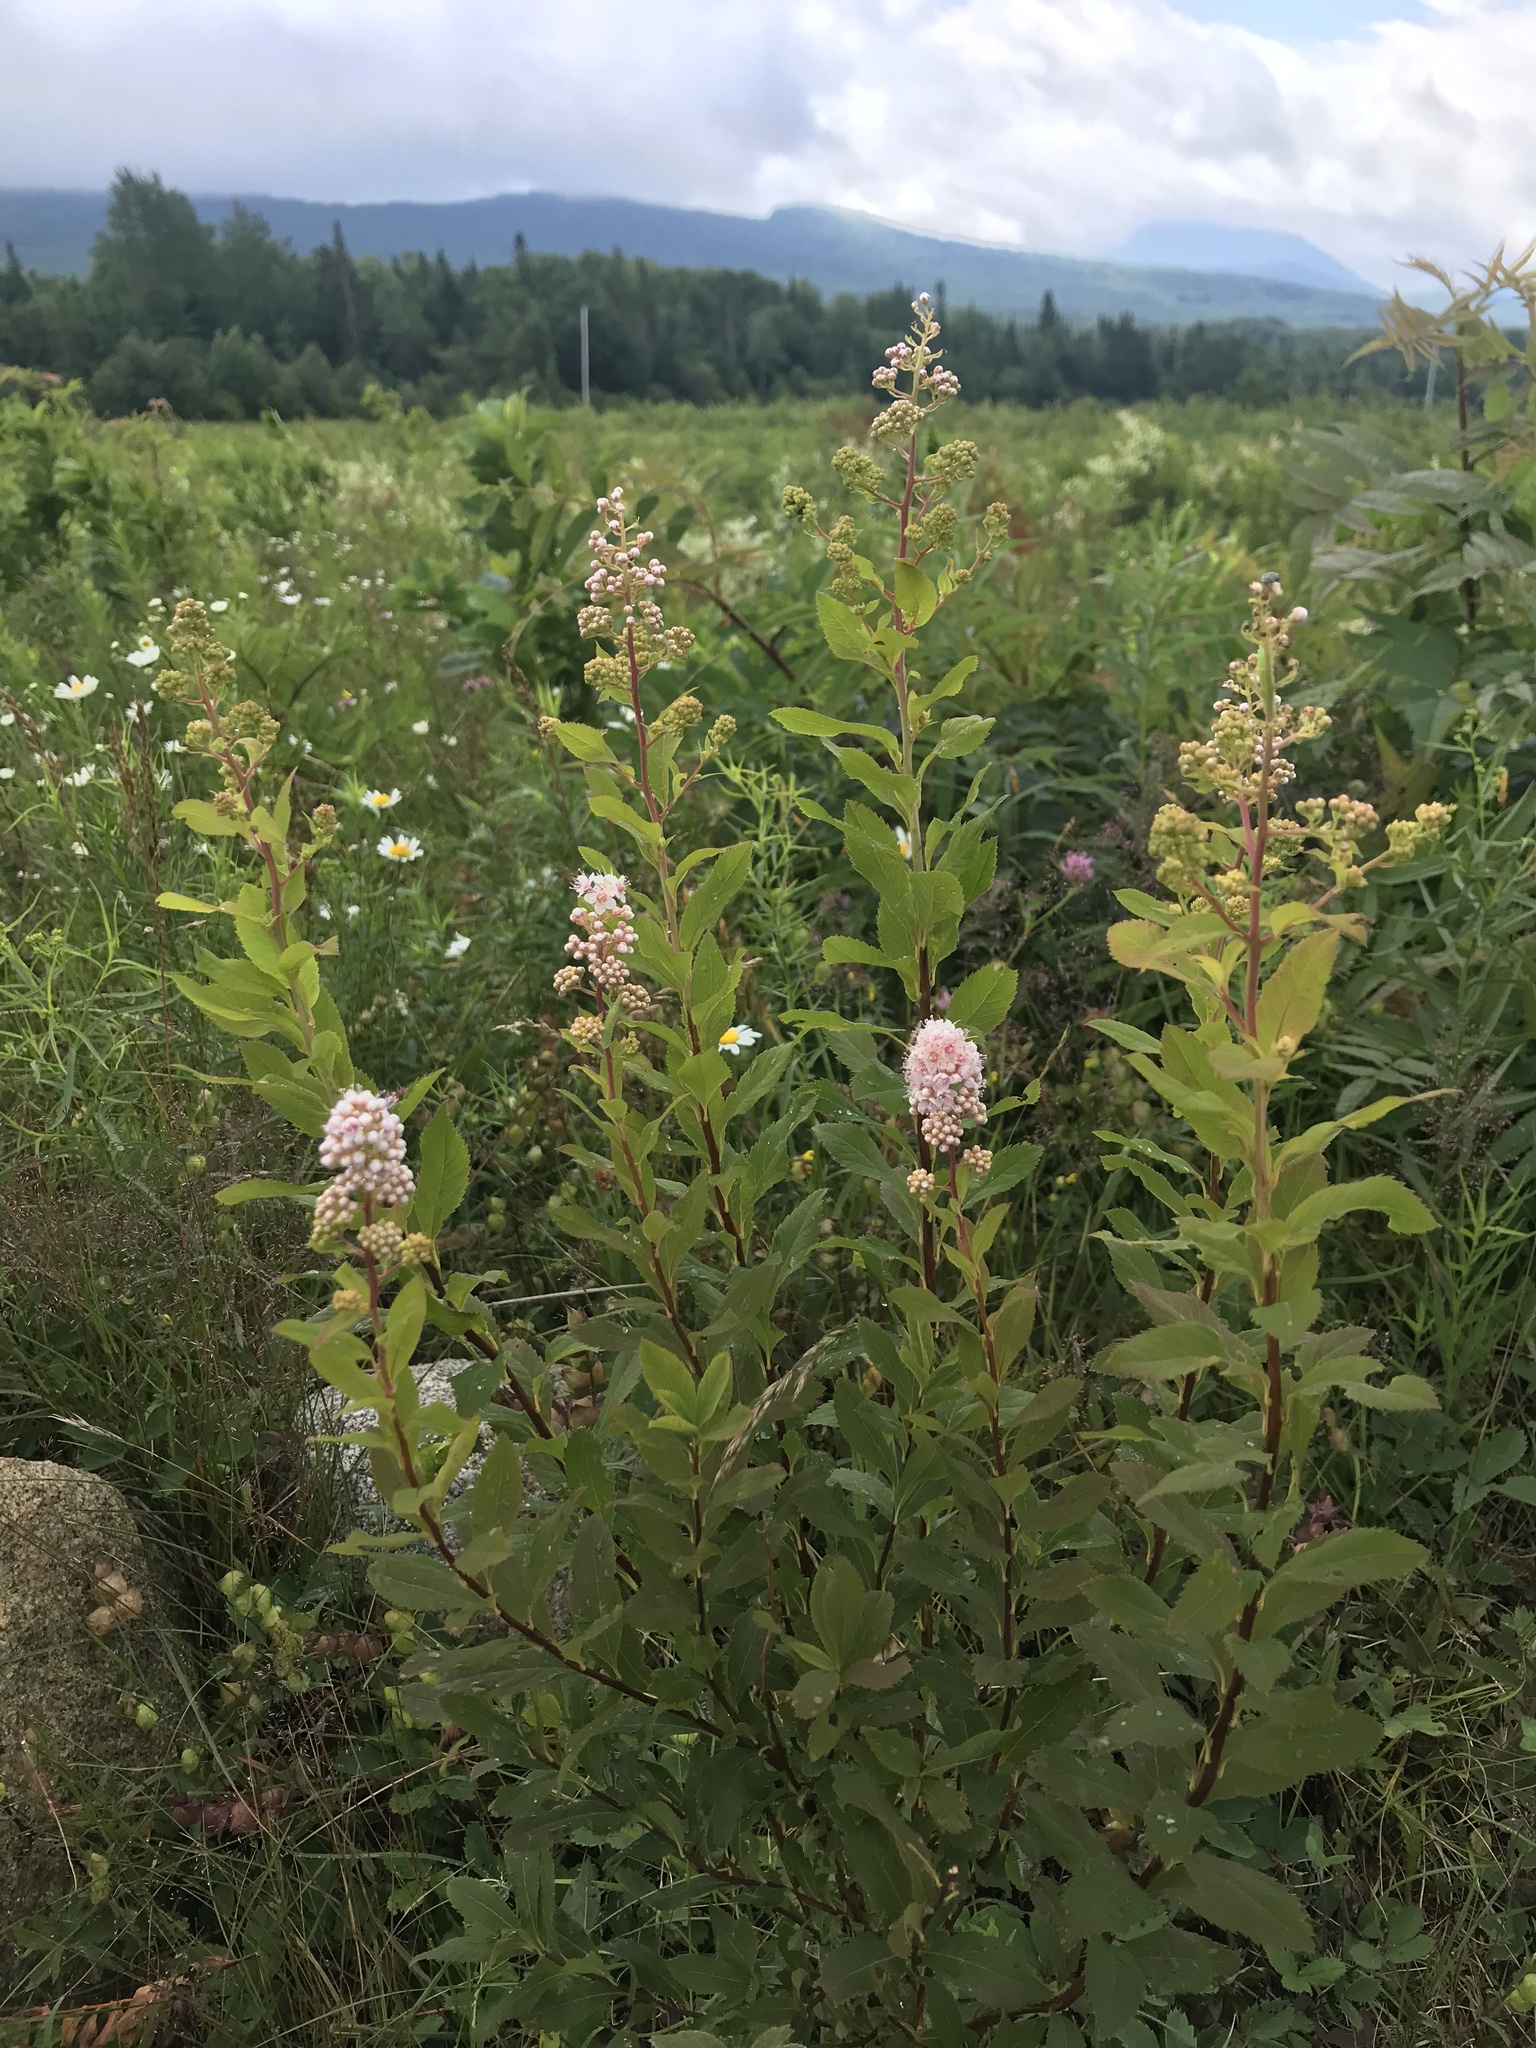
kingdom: Plantae
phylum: Tracheophyta
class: Magnoliopsida
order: Rosales
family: Rosaceae
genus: Spiraea
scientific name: Spiraea alba
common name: Pale bridewort
